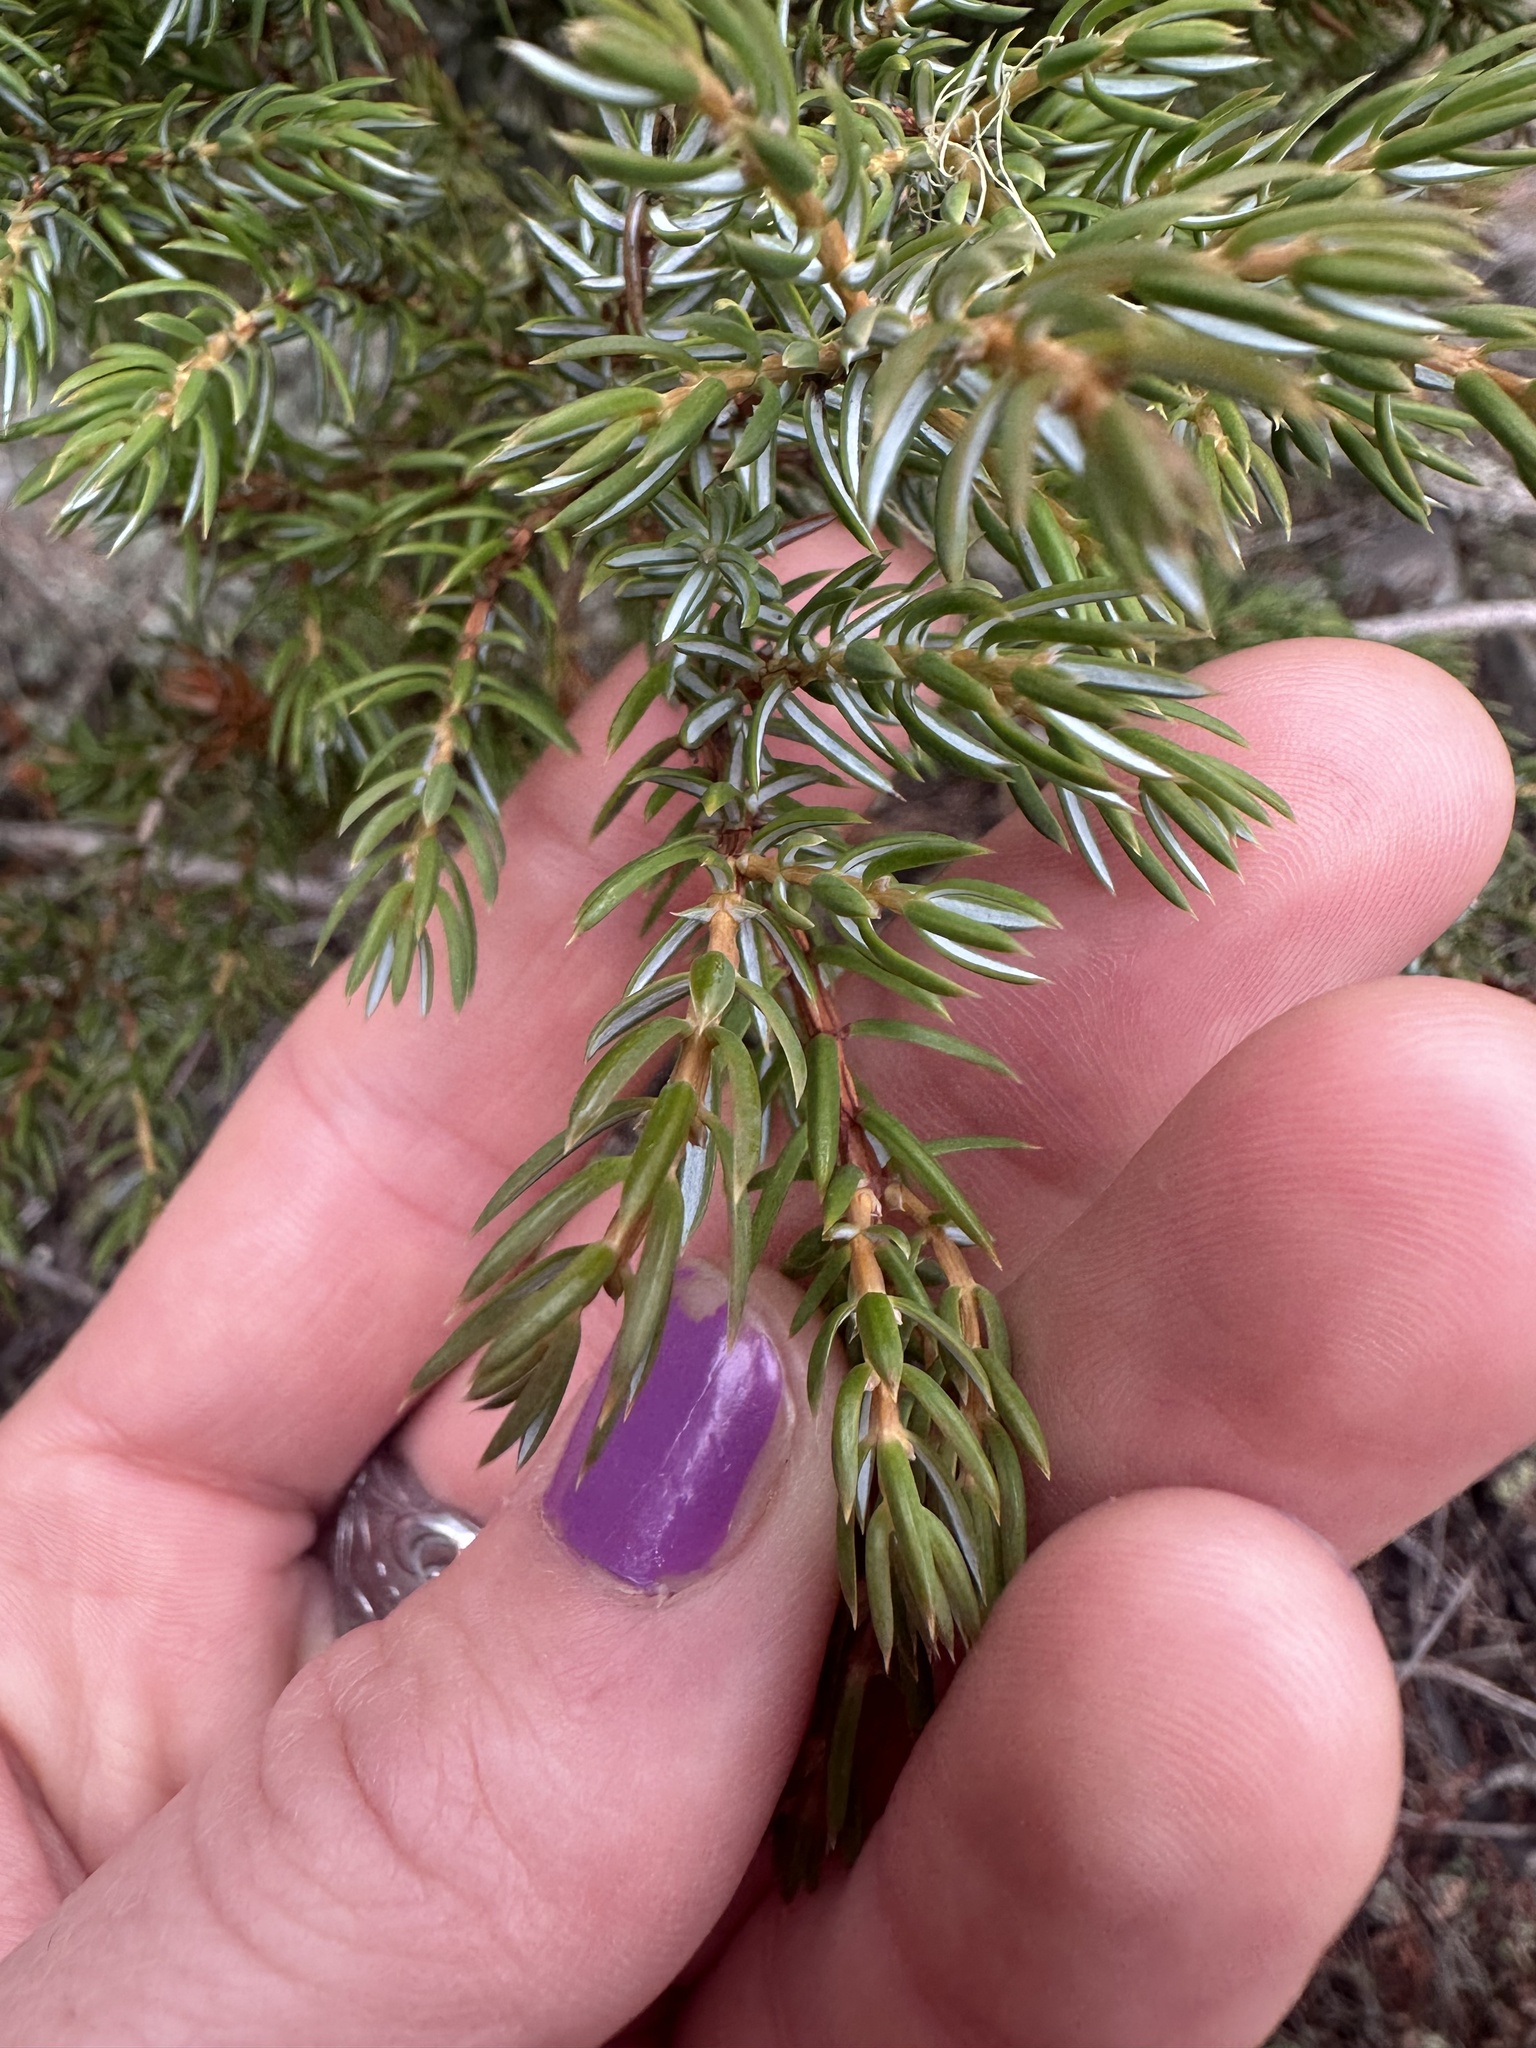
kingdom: Plantae
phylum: Tracheophyta
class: Pinopsida
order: Pinales
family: Cupressaceae
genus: Juniperus
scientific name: Juniperus communis
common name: Common juniper
